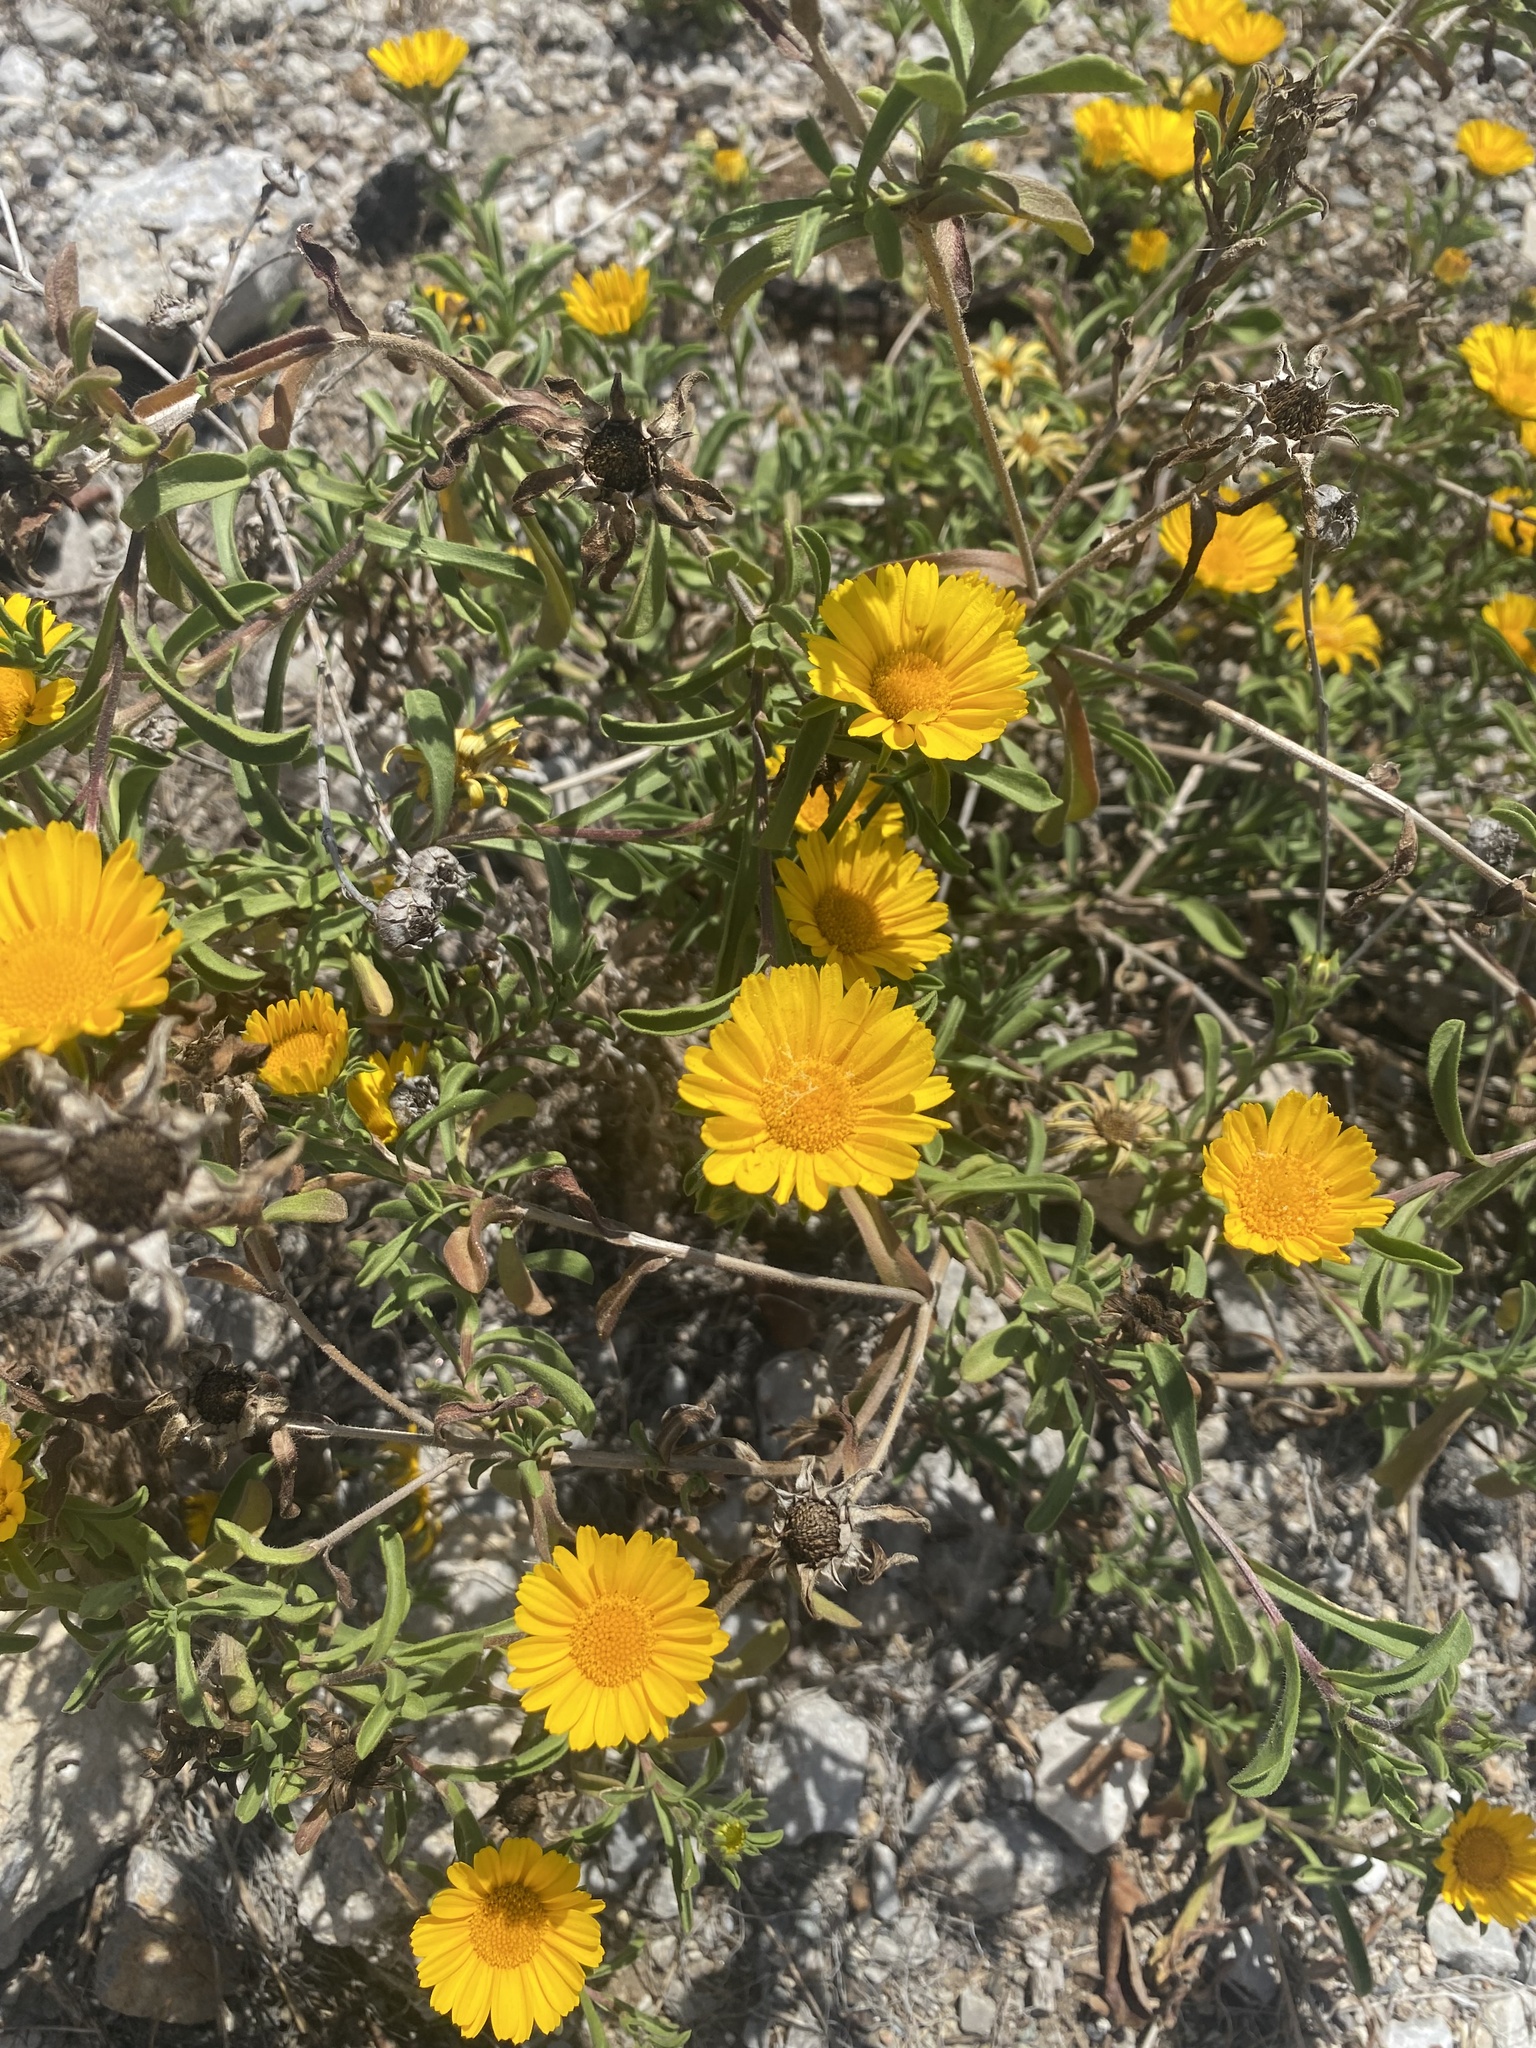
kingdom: Plantae
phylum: Tracheophyta
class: Magnoliopsida
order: Asterales
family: Asteraceae
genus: Pallenis
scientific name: Pallenis maritima
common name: Golden coin daisy
